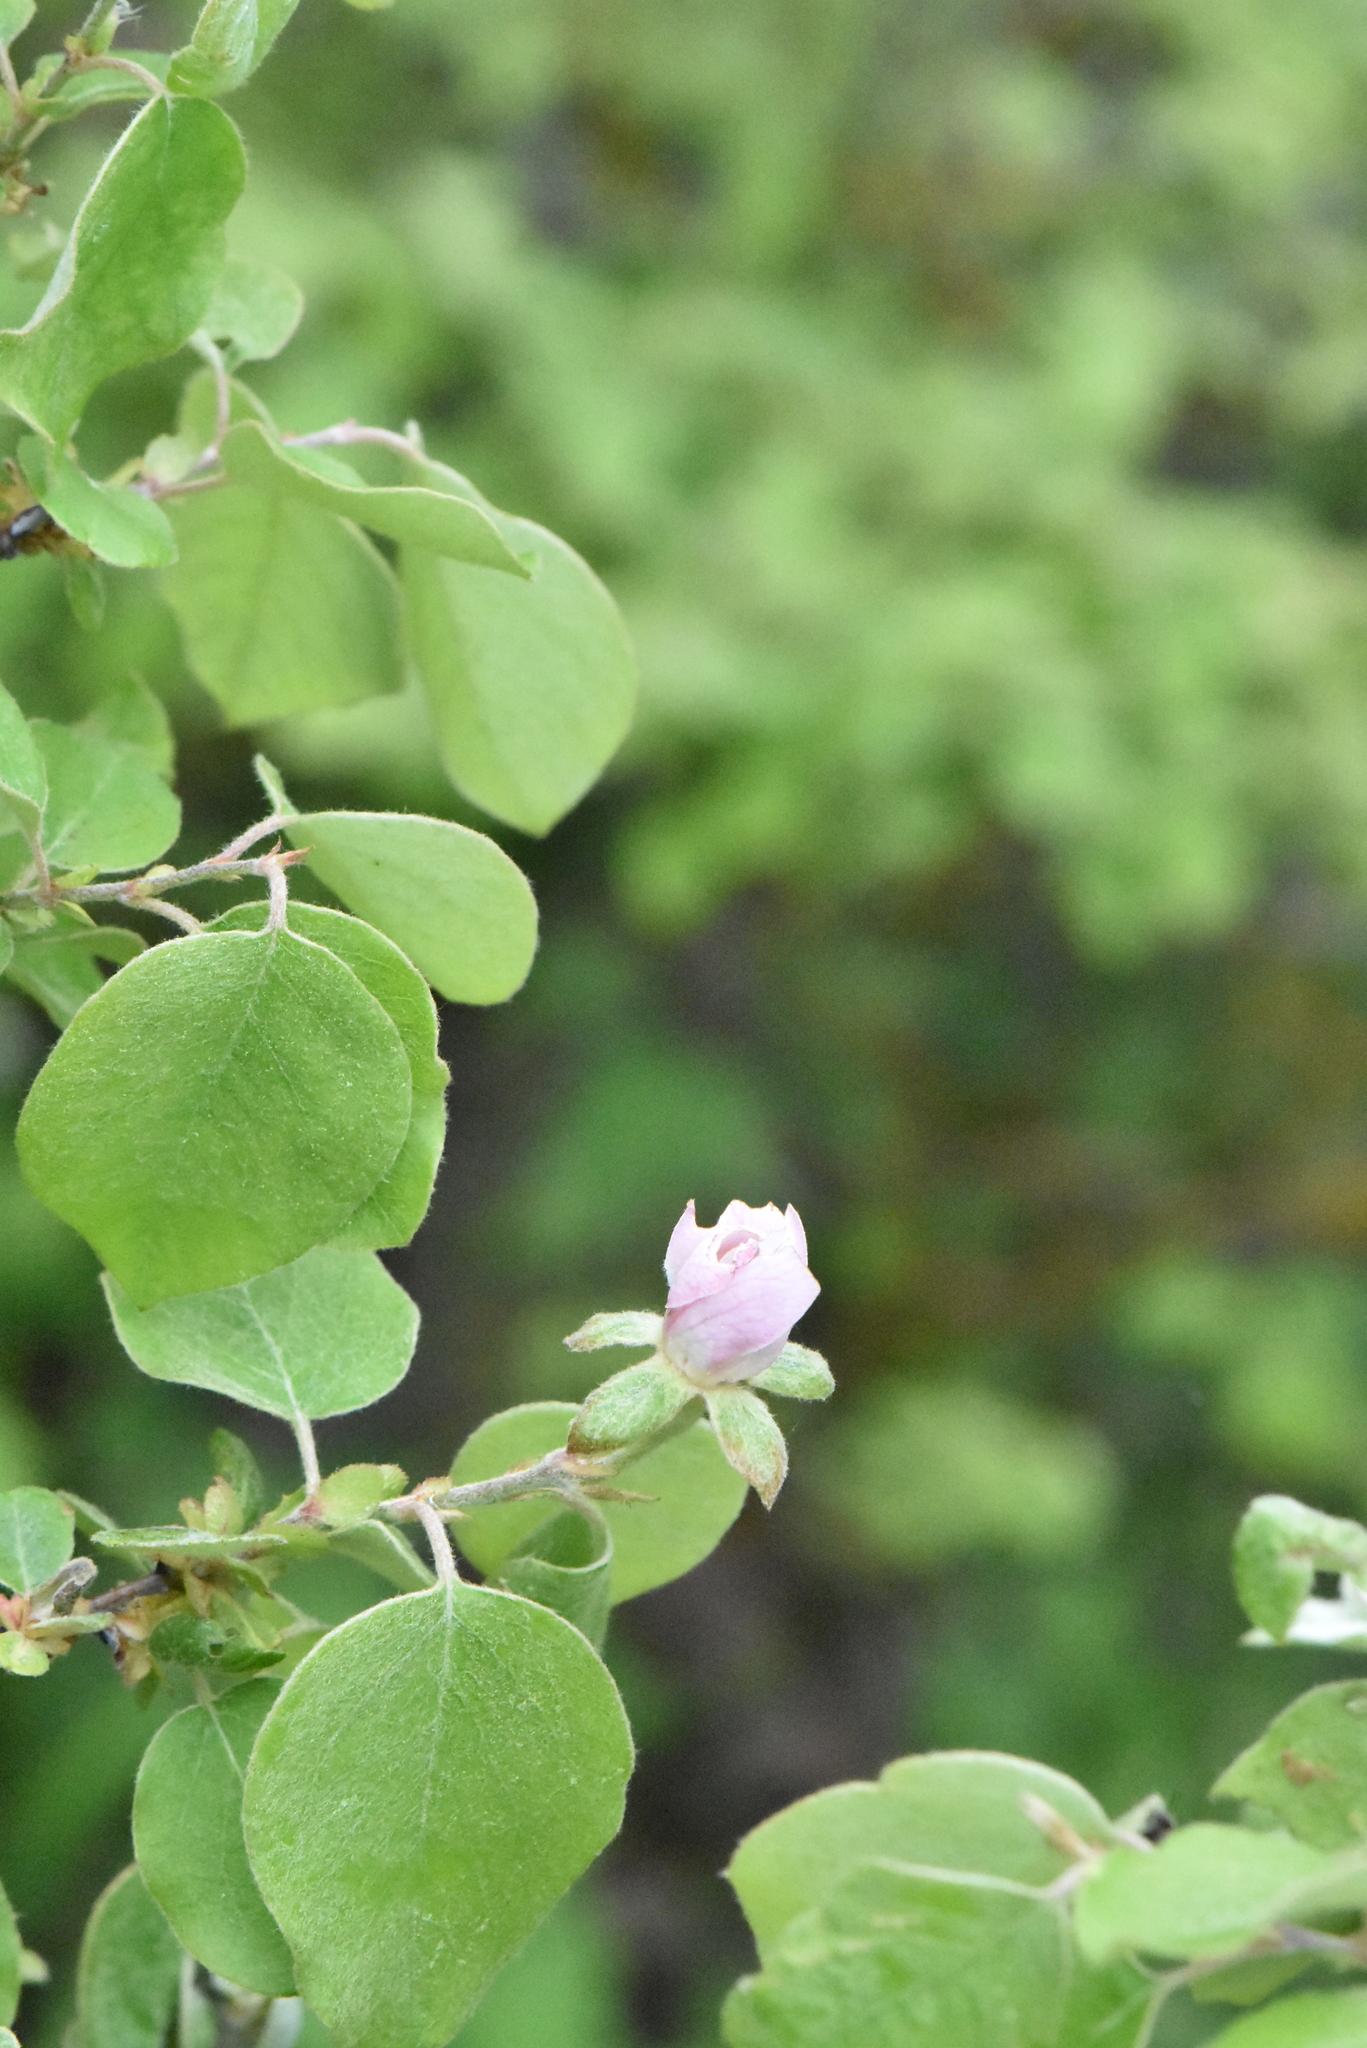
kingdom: Plantae
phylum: Tracheophyta
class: Magnoliopsida
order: Rosales
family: Rosaceae
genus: Cydonia
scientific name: Cydonia oblonga
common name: Quince
